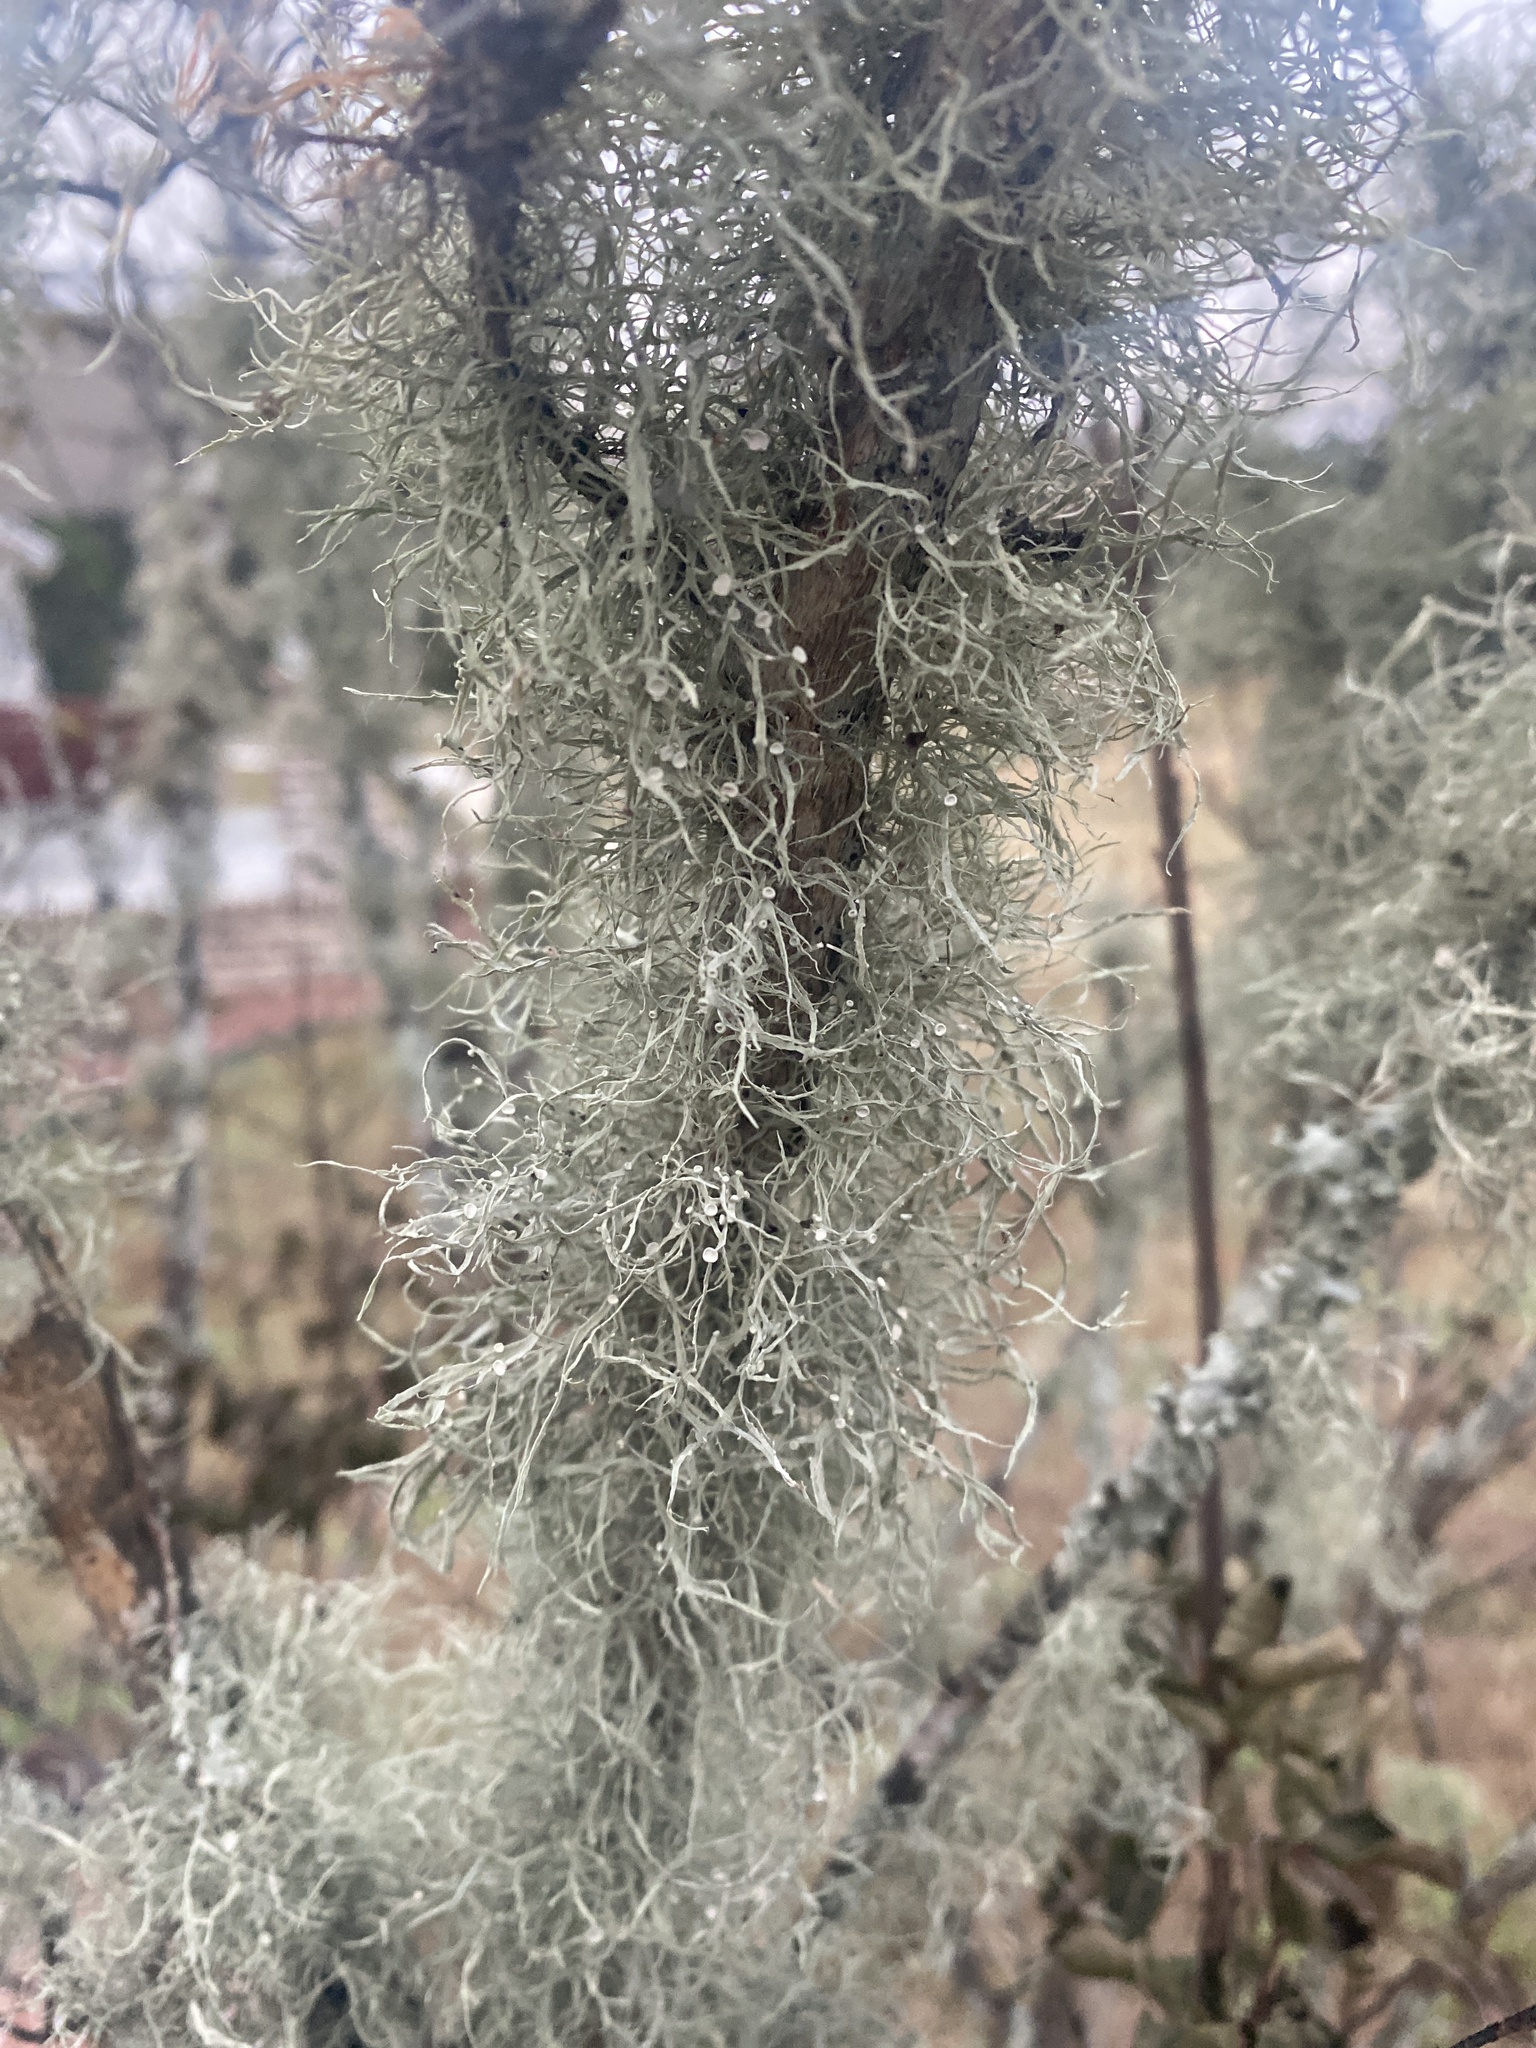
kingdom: Fungi
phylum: Ascomycota
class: Lecanoromycetes
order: Lecanorales
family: Ramalinaceae
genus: Ramalina
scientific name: Ramalina stenospora
